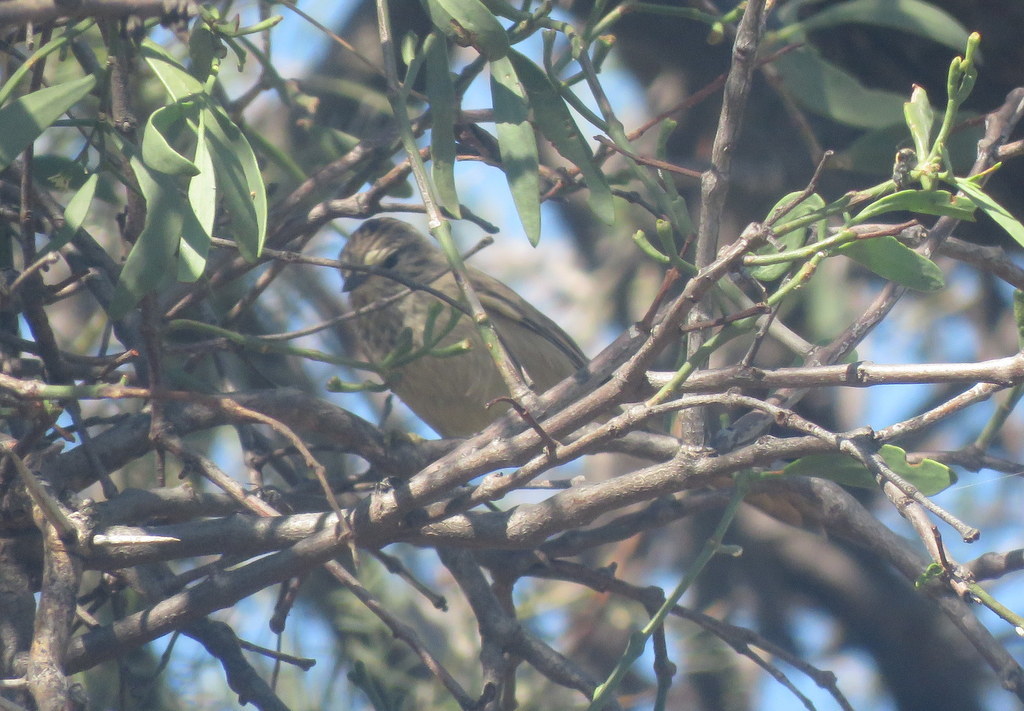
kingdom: Animalia
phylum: Chordata
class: Aves
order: Passeriformes
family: Furnariidae
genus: Leptasthenura
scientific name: Leptasthenura platensis
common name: Tufted tit-spinetail
